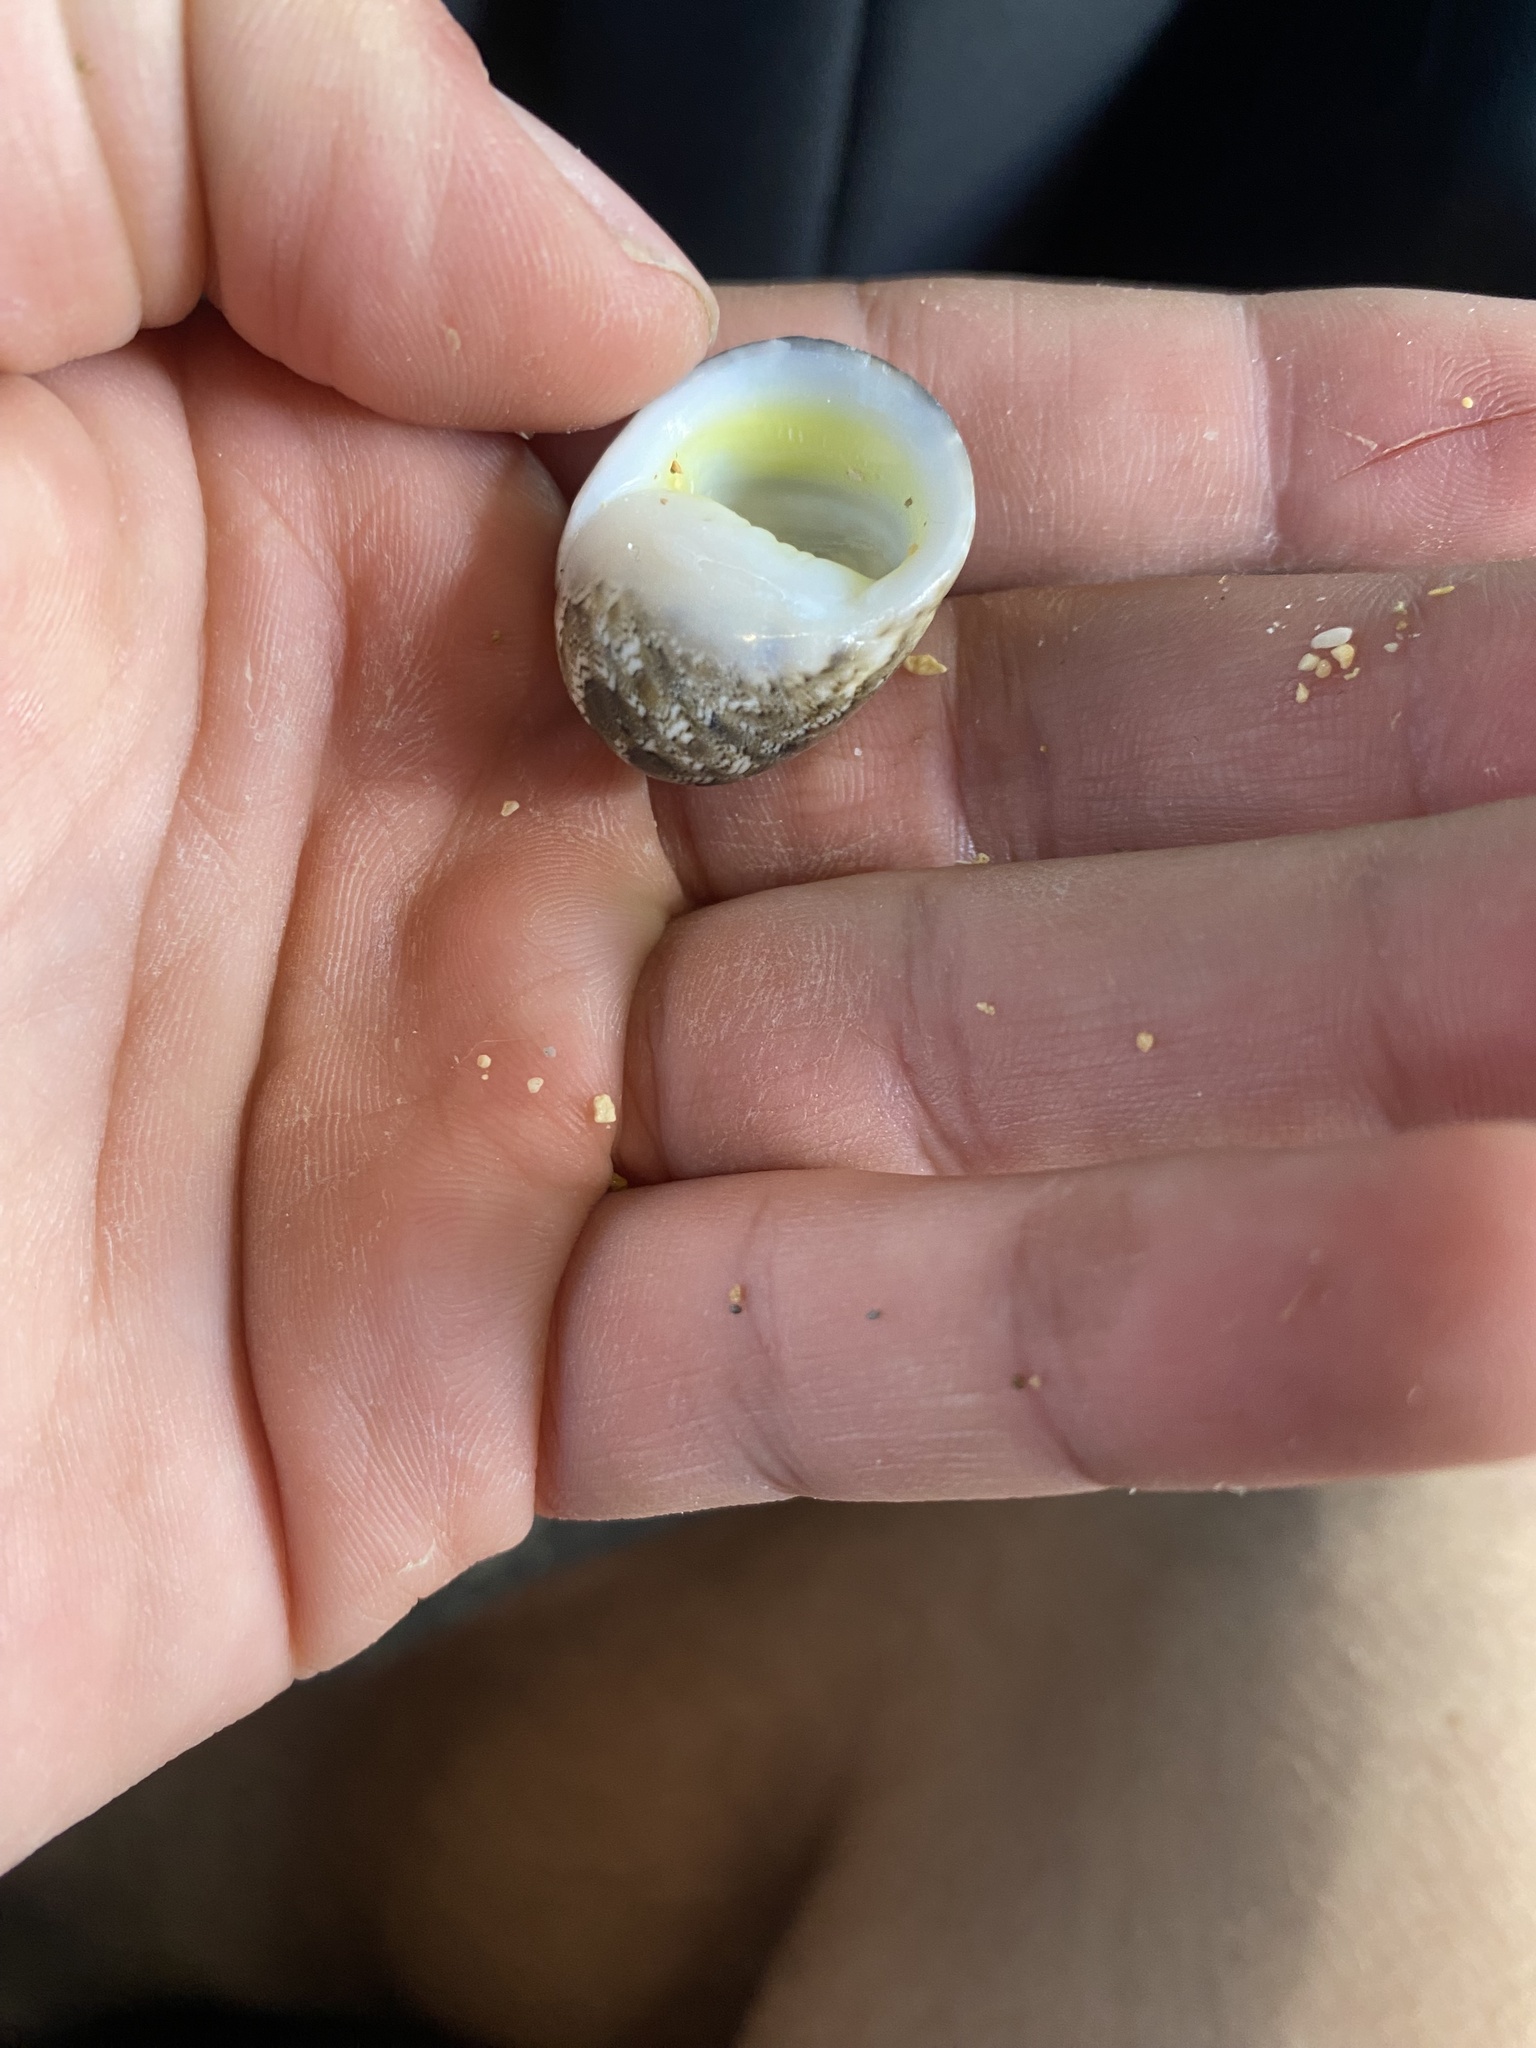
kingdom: Animalia
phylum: Mollusca
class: Gastropoda
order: Cycloneritida
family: Neritidae
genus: Nerita
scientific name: Nerita polita
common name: Polished nerite
